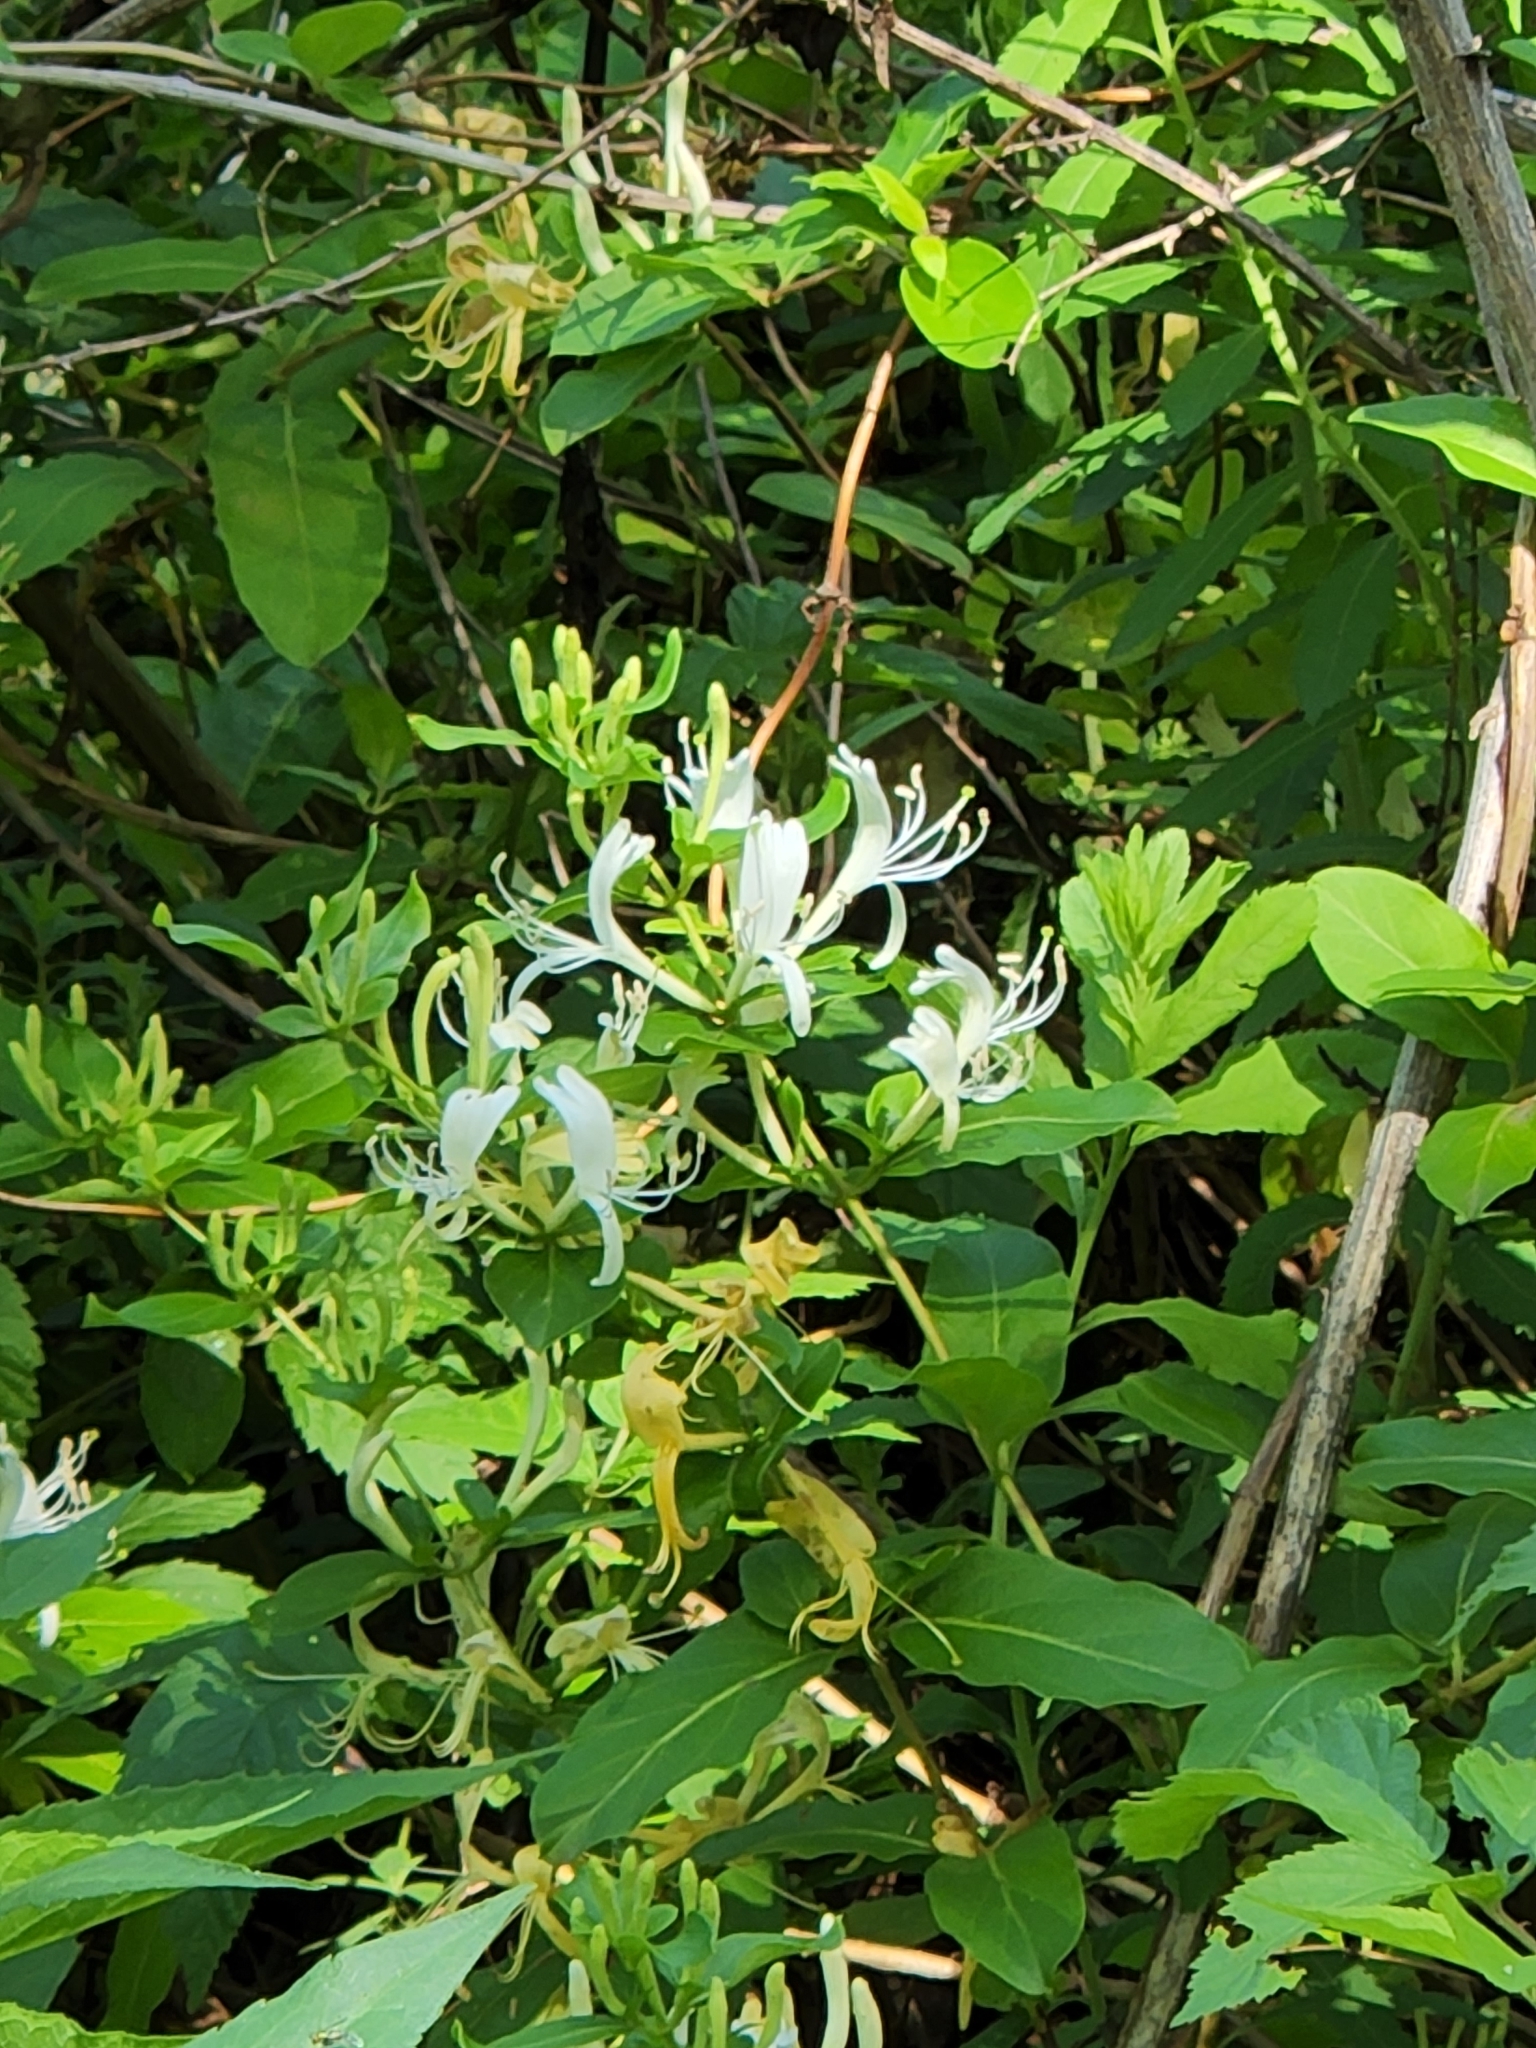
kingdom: Plantae
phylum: Tracheophyta
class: Magnoliopsida
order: Dipsacales
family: Caprifoliaceae
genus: Lonicera
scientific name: Lonicera japonica
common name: Japanese honeysuckle
